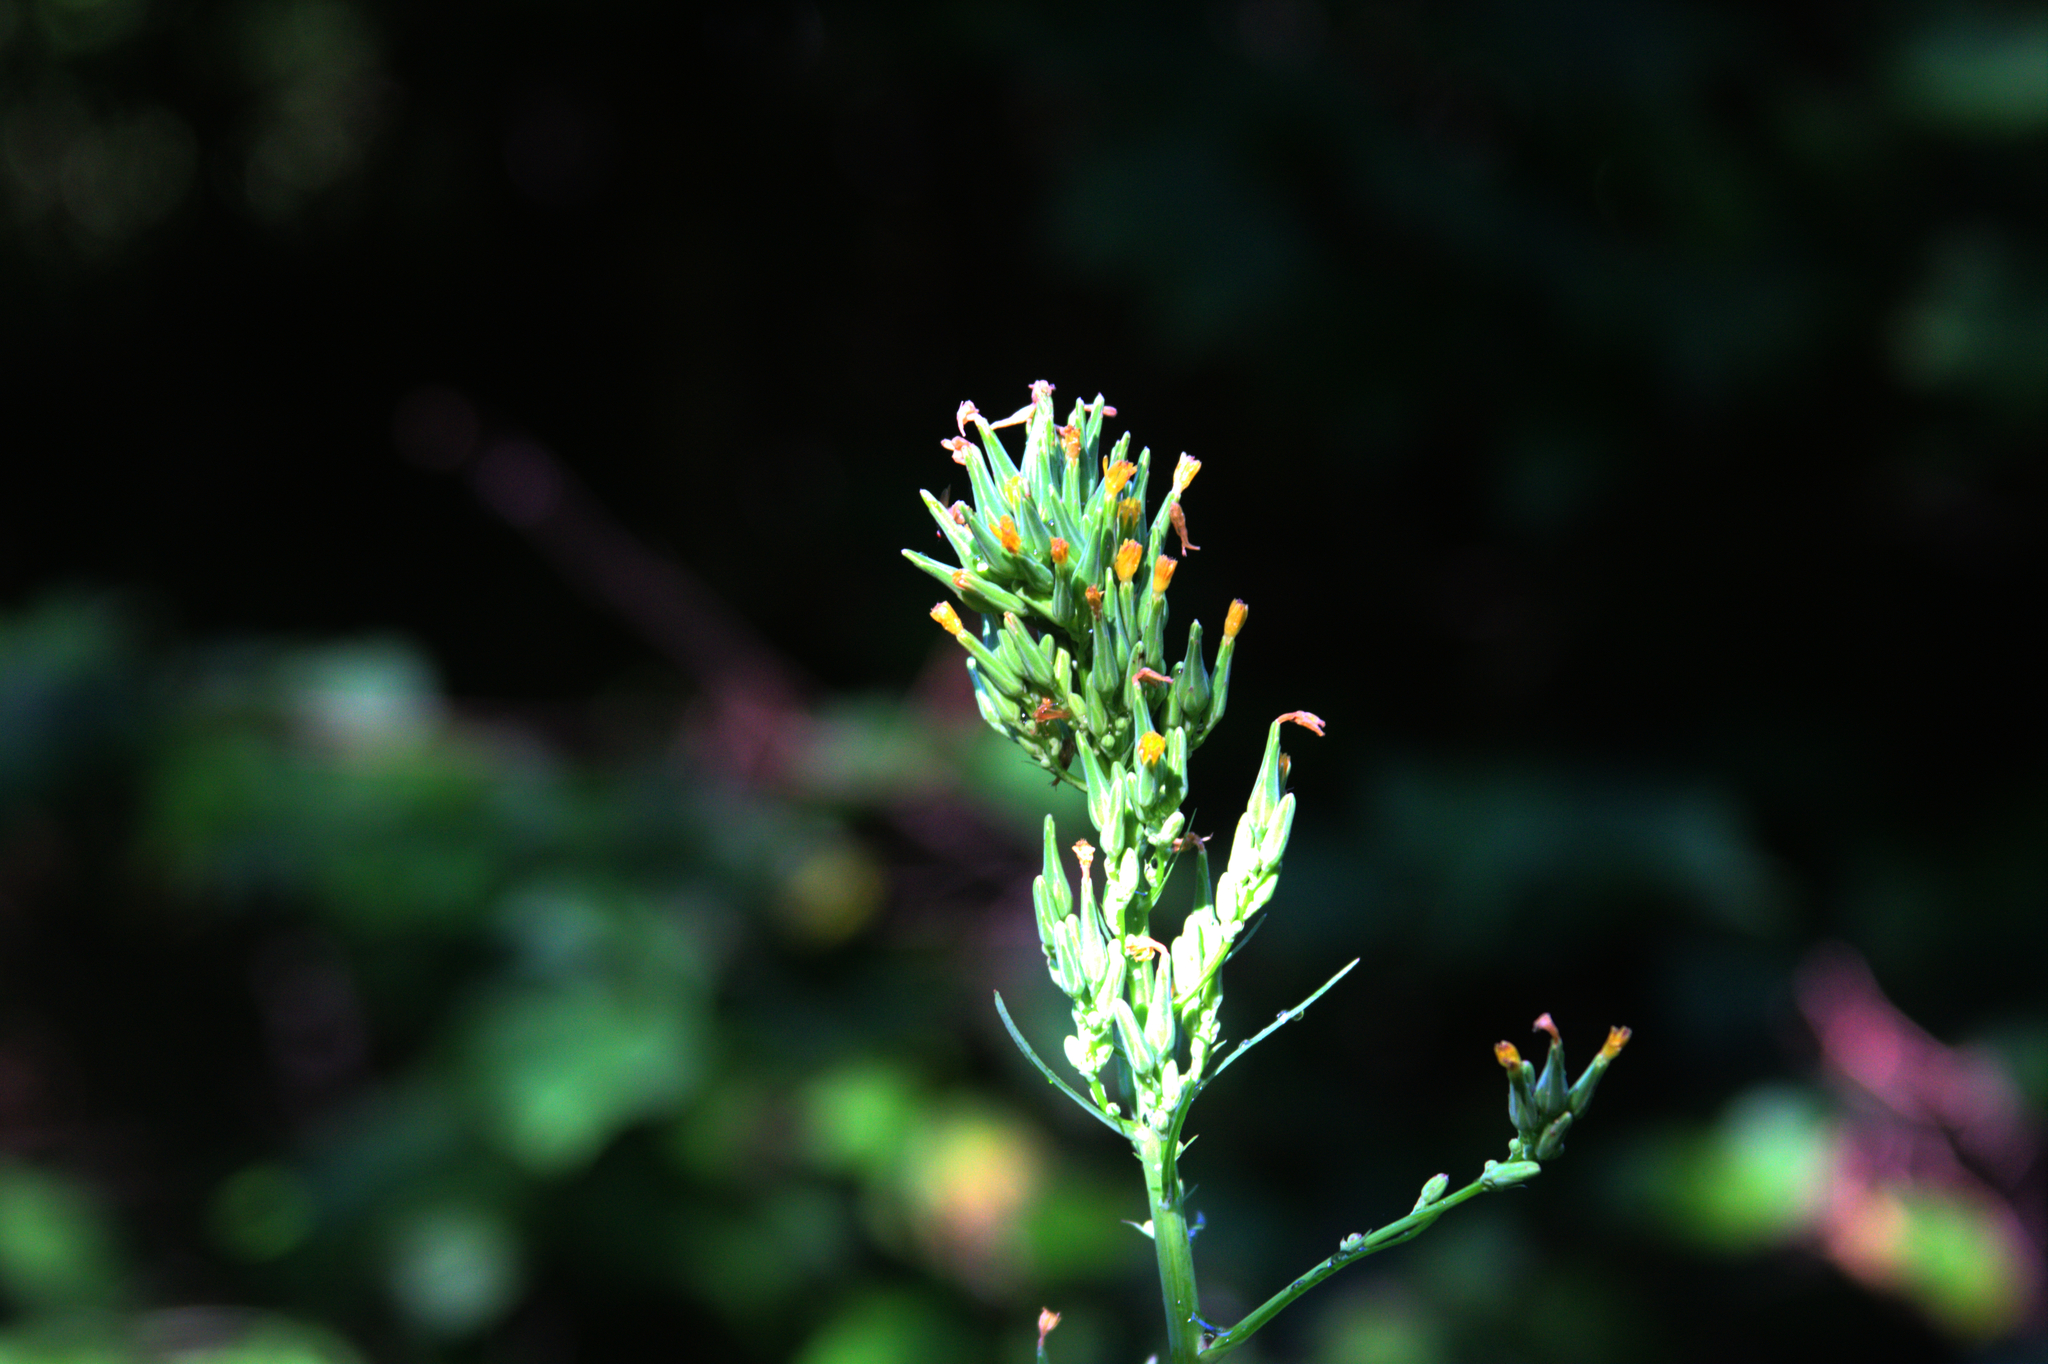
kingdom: Plantae
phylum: Tracheophyta
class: Magnoliopsida
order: Asterales
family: Asteraceae
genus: Lactuca
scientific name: Lactuca canadensis
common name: Canada lettuce
